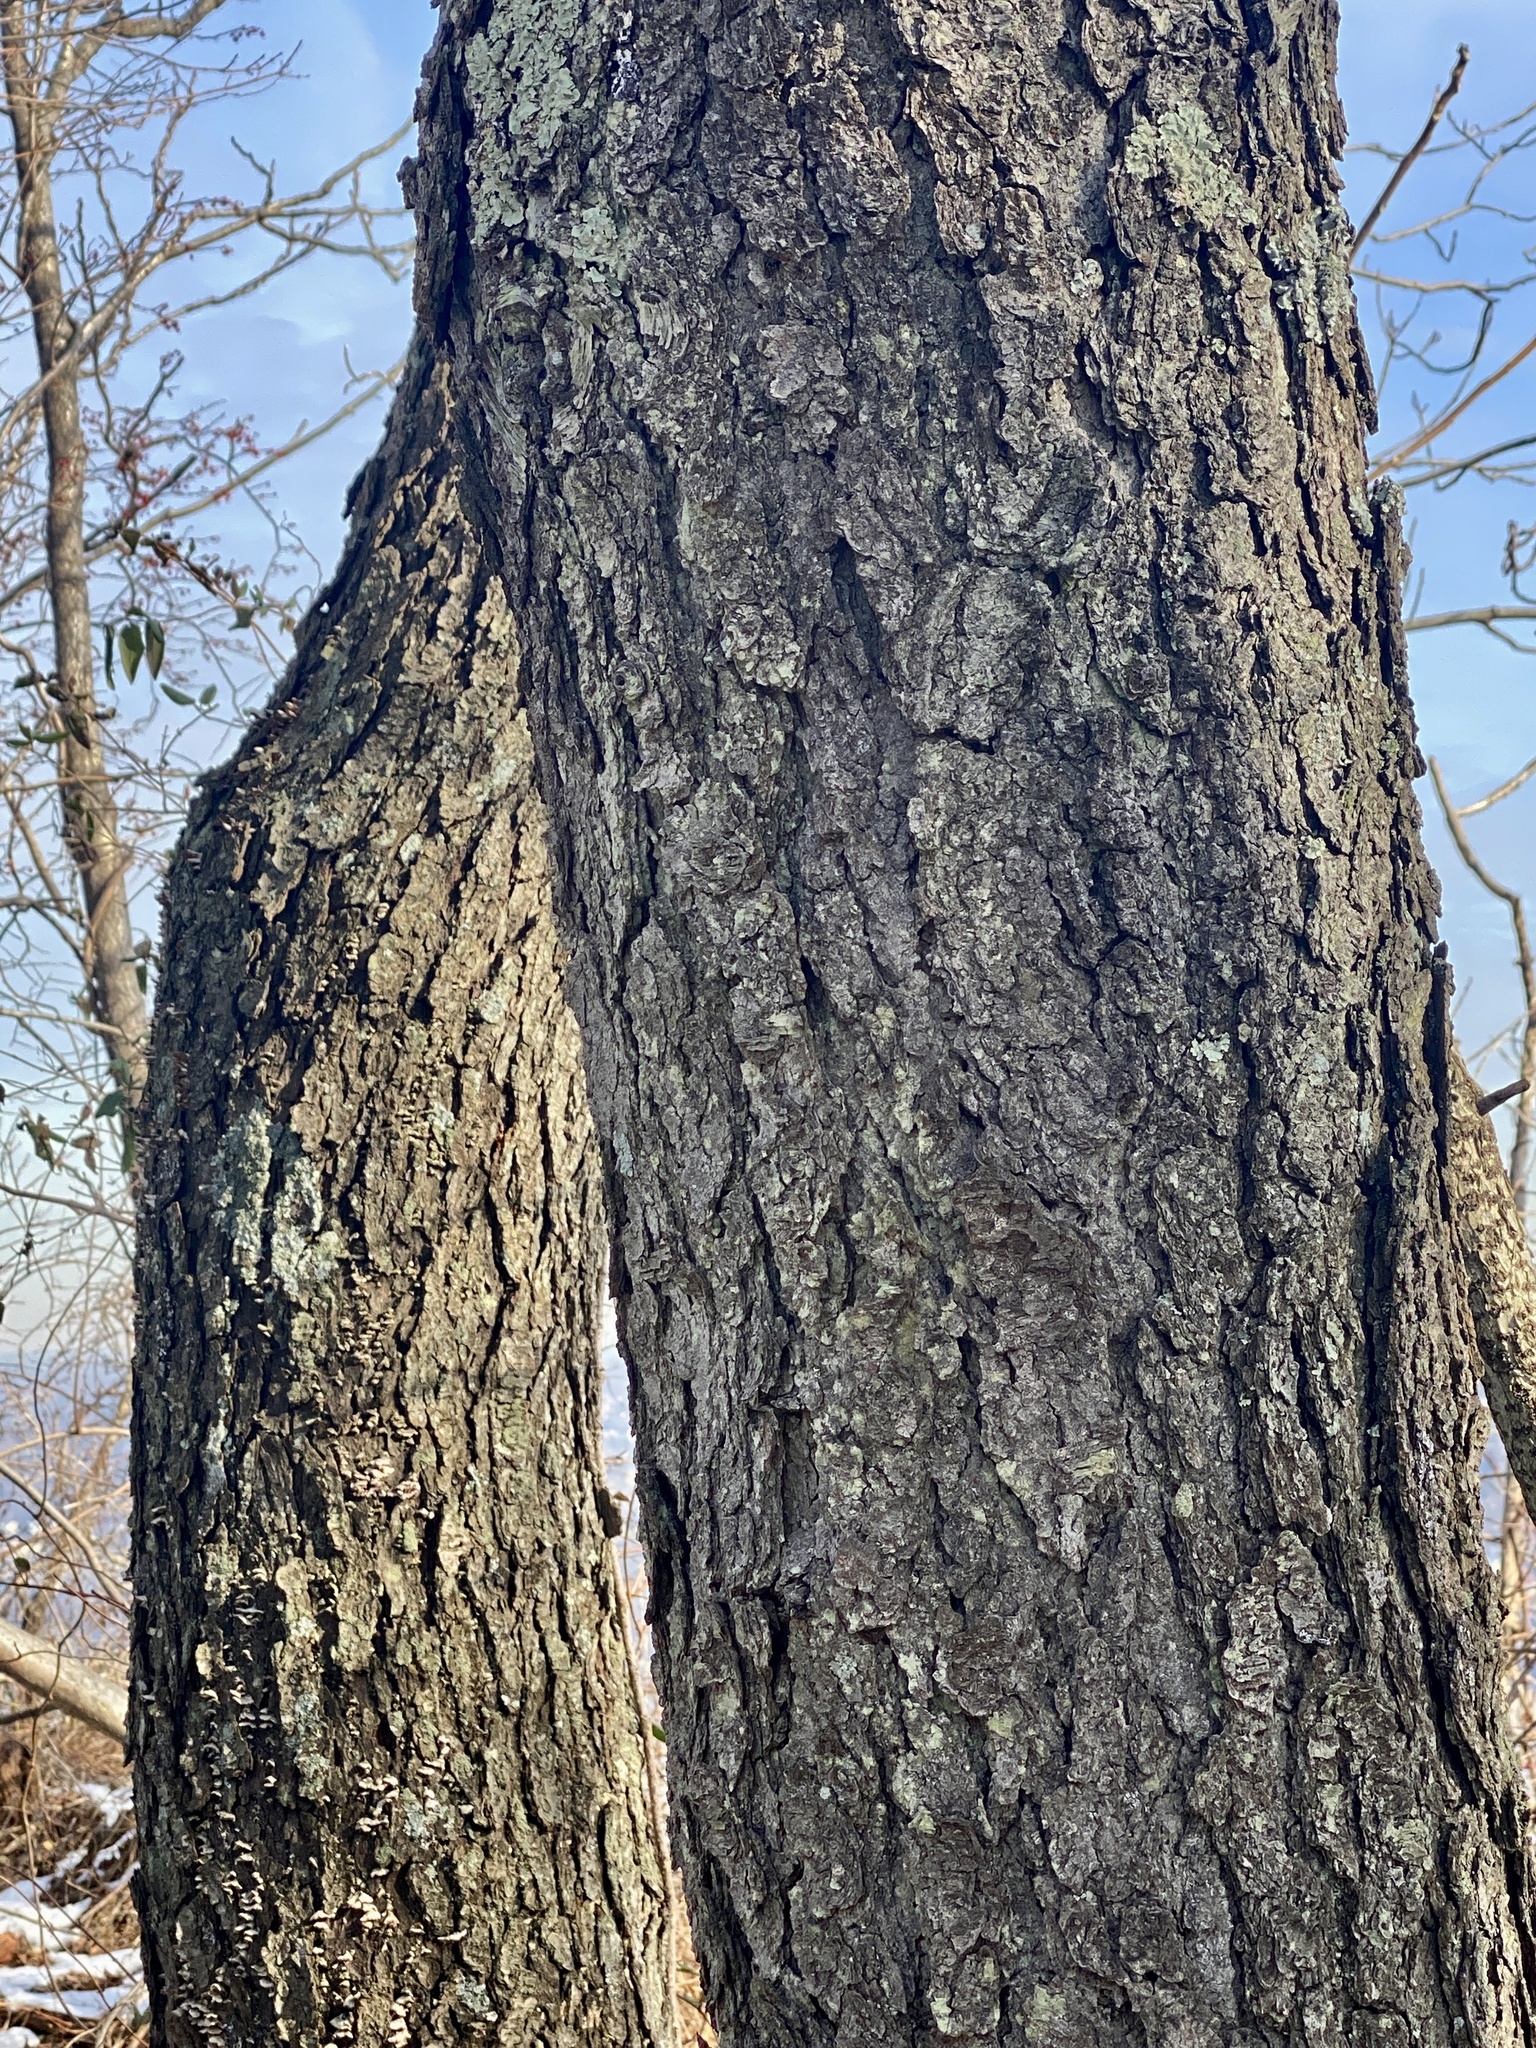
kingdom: Plantae
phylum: Tracheophyta
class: Magnoliopsida
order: Rosales
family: Rosaceae
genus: Prunus
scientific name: Prunus serotina
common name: Black cherry
